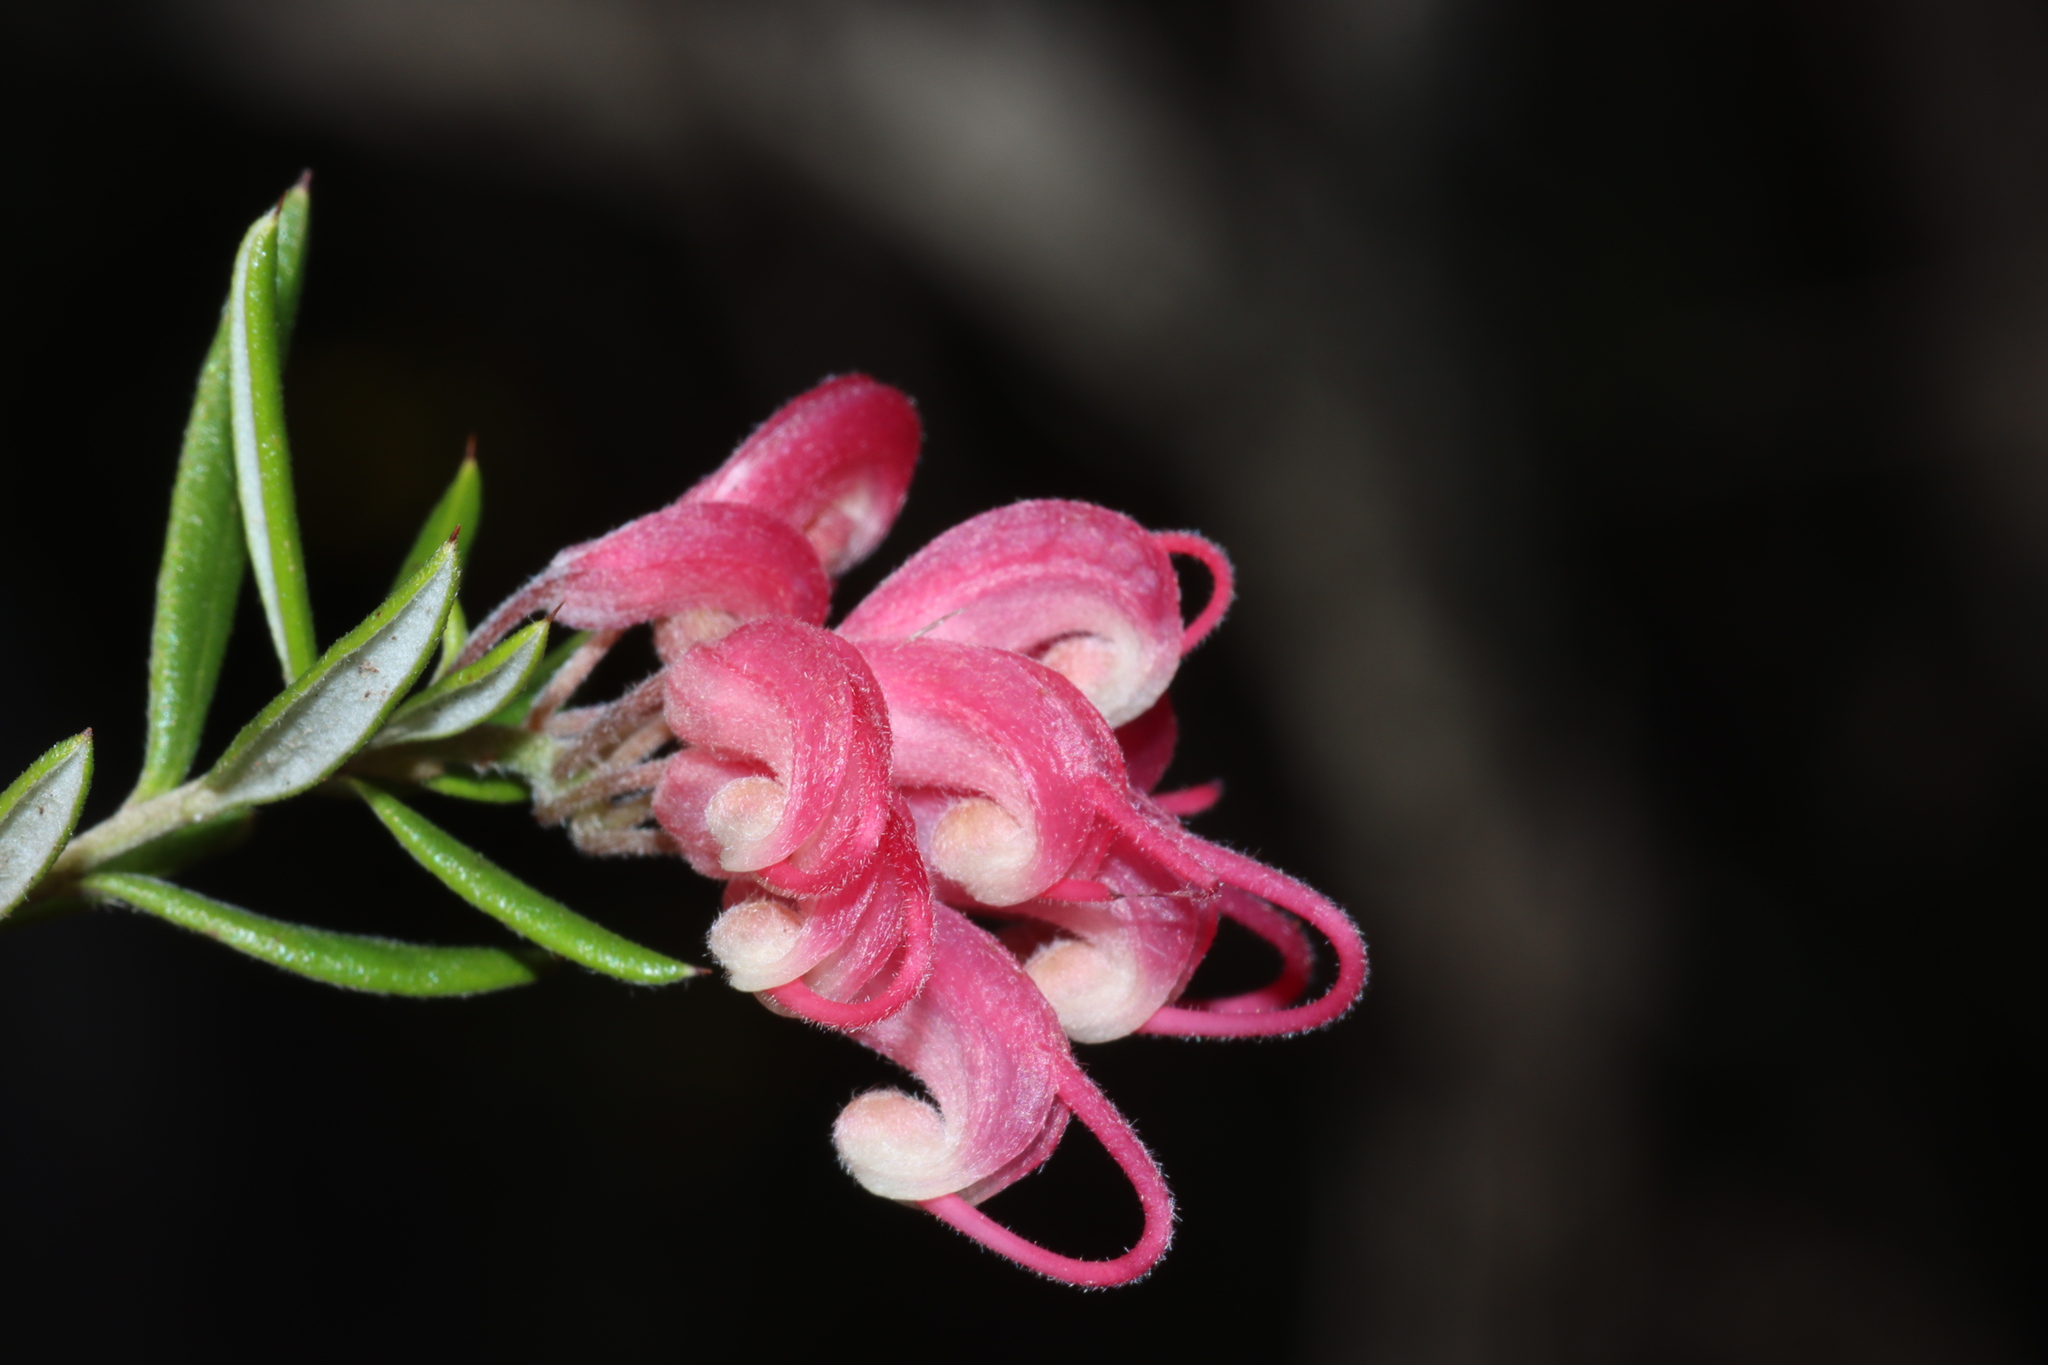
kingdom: Plantae
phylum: Tracheophyta
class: Magnoliopsida
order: Proteales
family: Proteaceae
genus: Grevillea
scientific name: Grevillea lavandulacea
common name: Lavender grevillea
